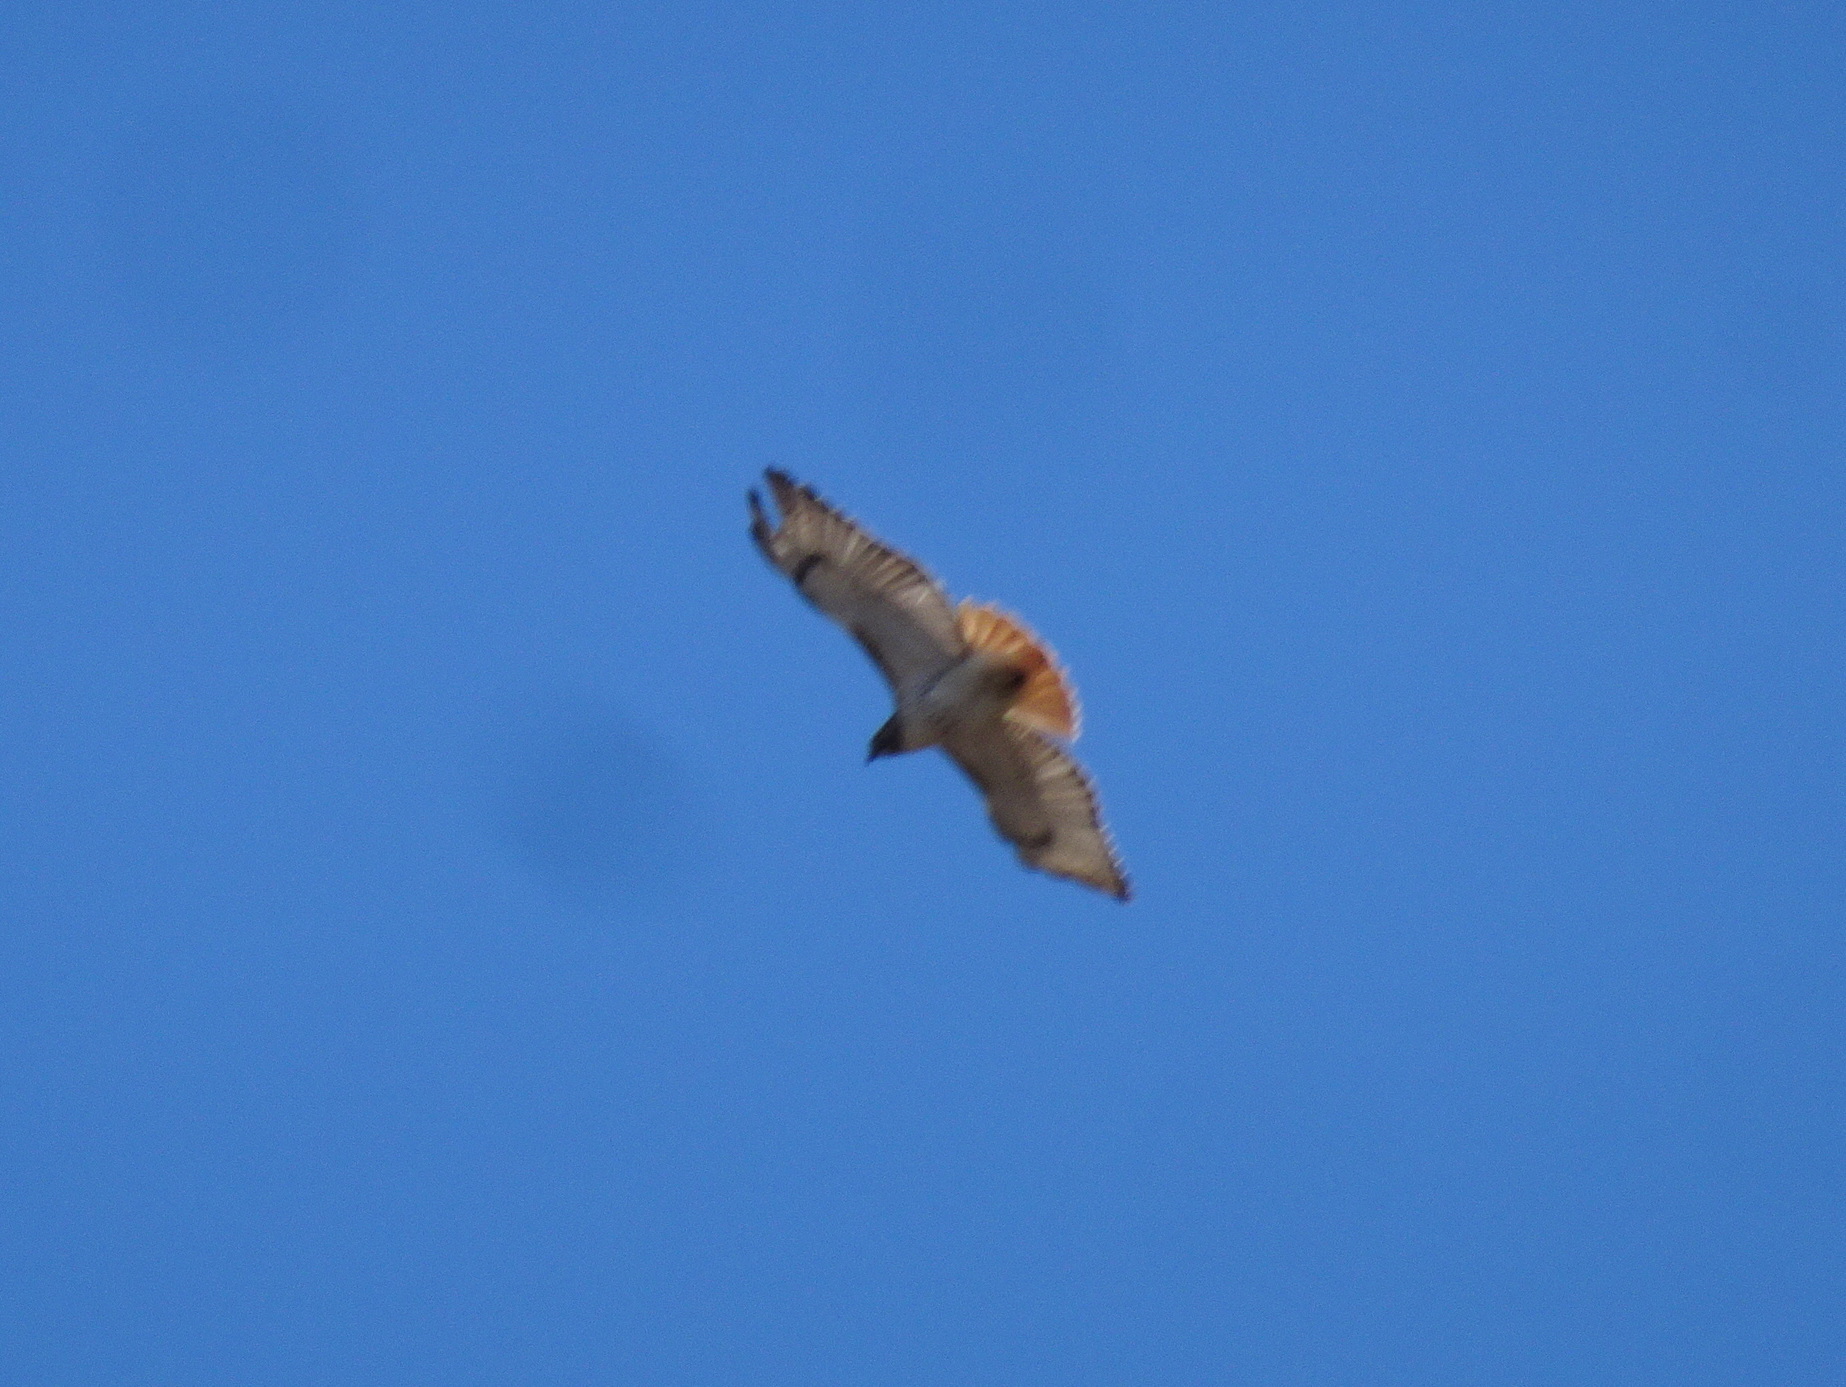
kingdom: Animalia
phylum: Chordata
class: Aves
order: Accipitriformes
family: Accipitridae
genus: Buteo
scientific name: Buteo jamaicensis
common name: Red-tailed hawk
